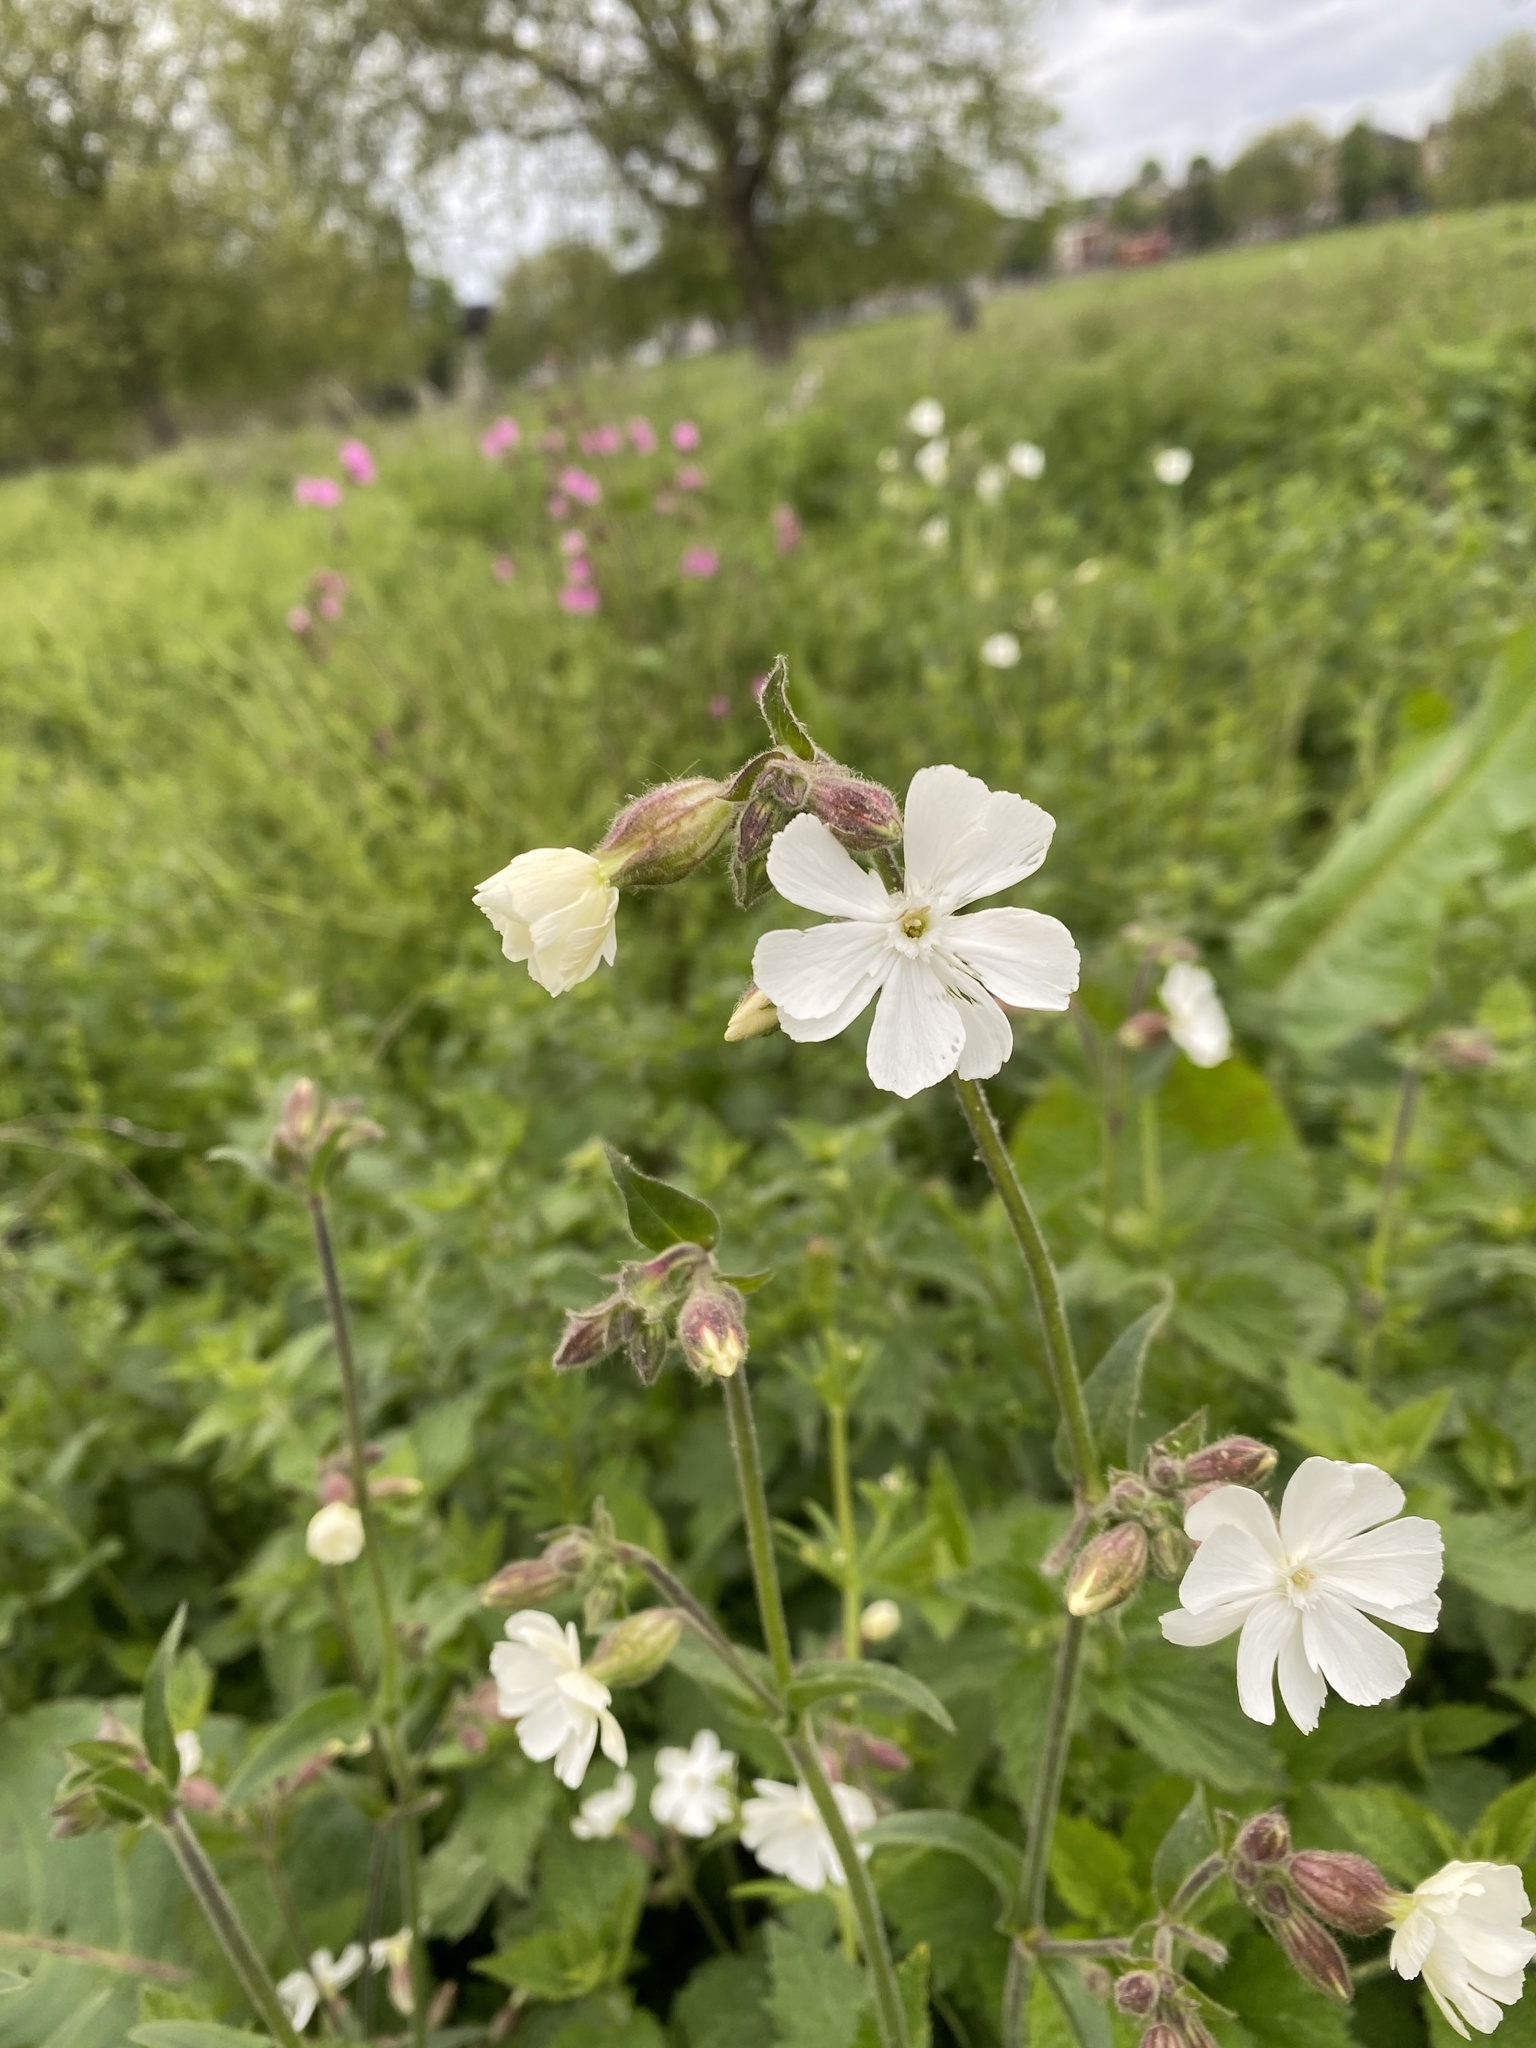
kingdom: Plantae
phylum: Tracheophyta
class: Magnoliopsida
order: Caryophyllales
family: Caryophyllaceae
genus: Silene
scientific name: Silene latifolia
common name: White campion
